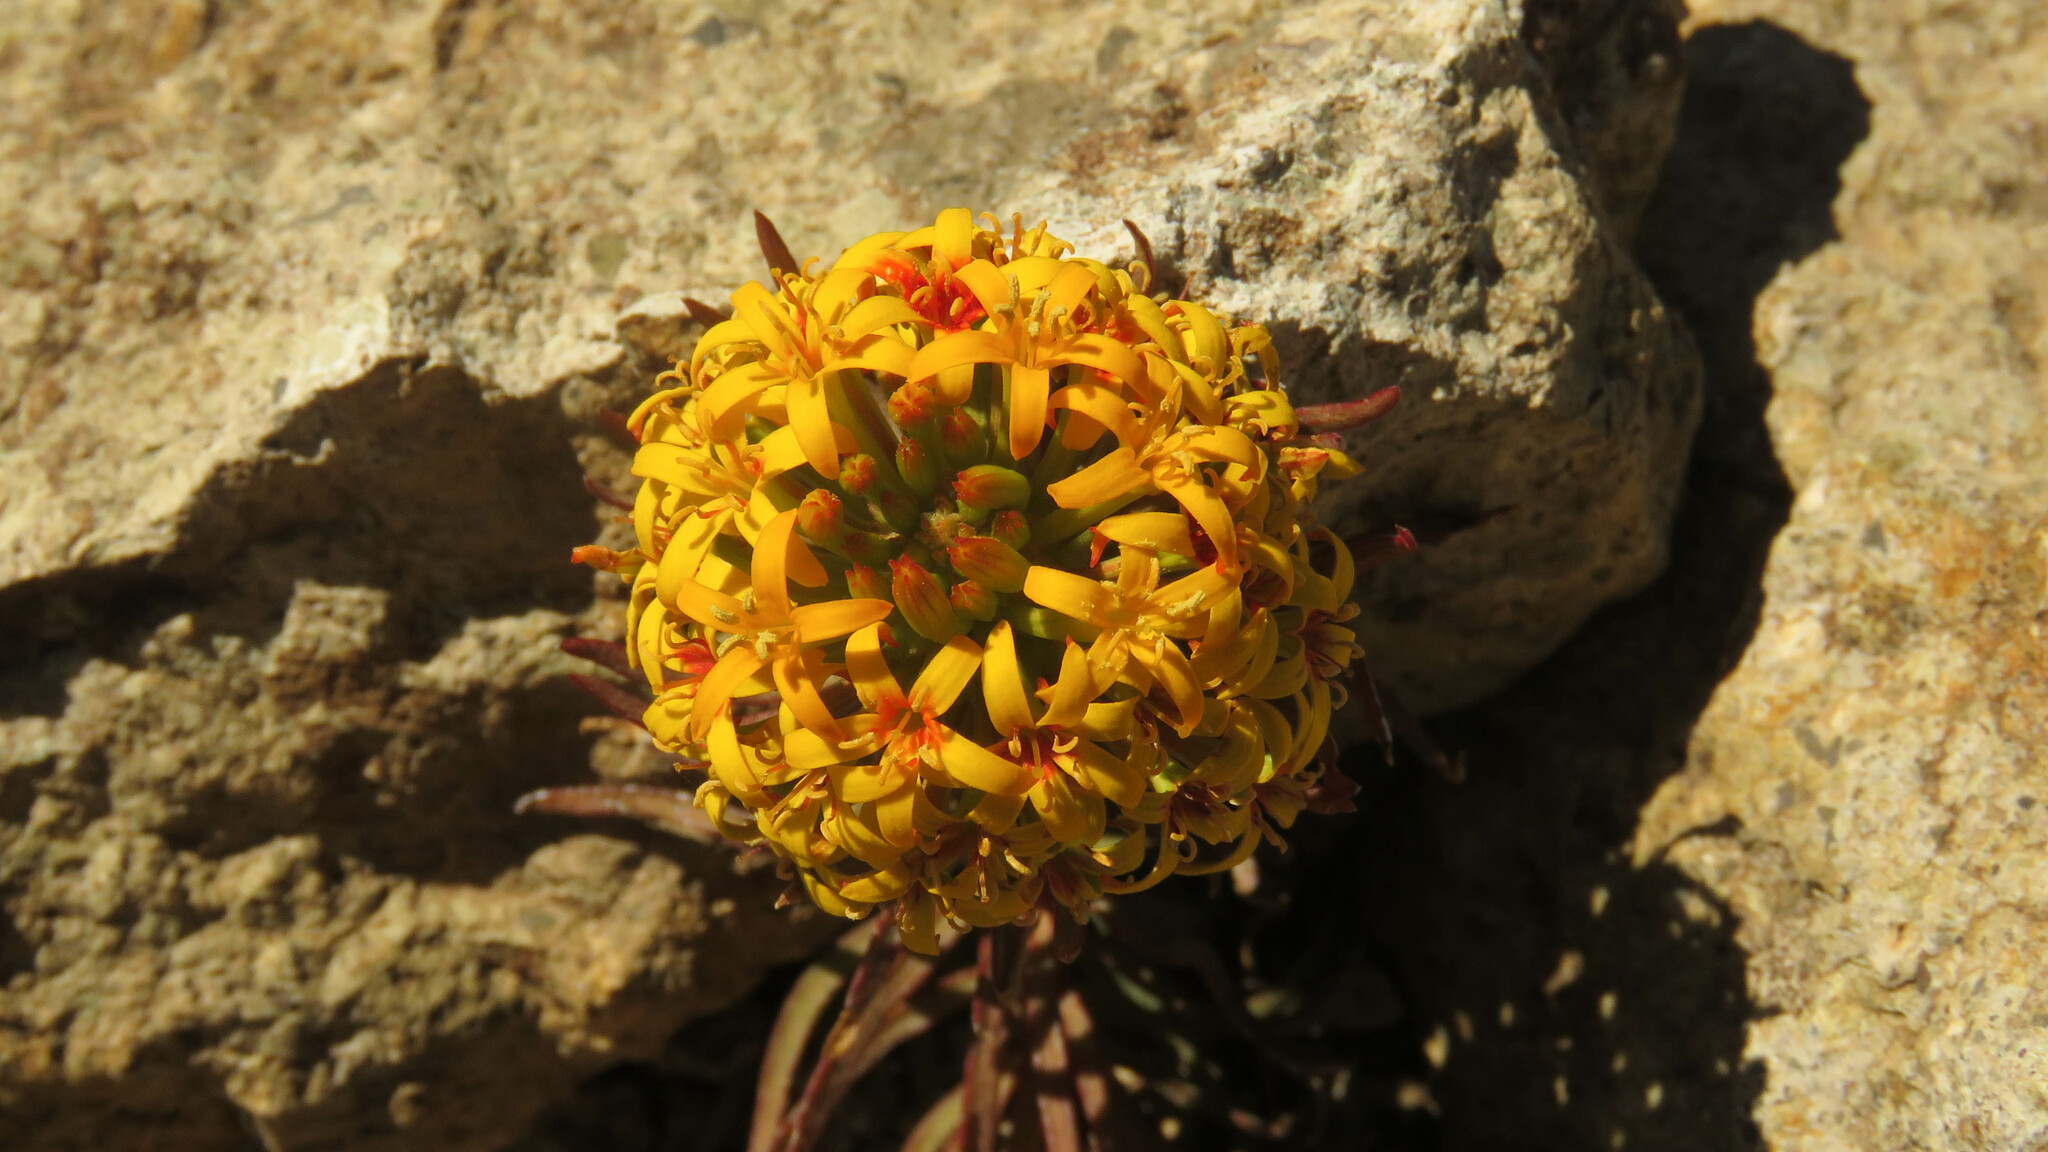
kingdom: Plantae
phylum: Tracheophyta
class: Magnoliopsida
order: Santalales
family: Schoepfiaceae
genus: Quinchamalium
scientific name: Quinchamalium chilense
